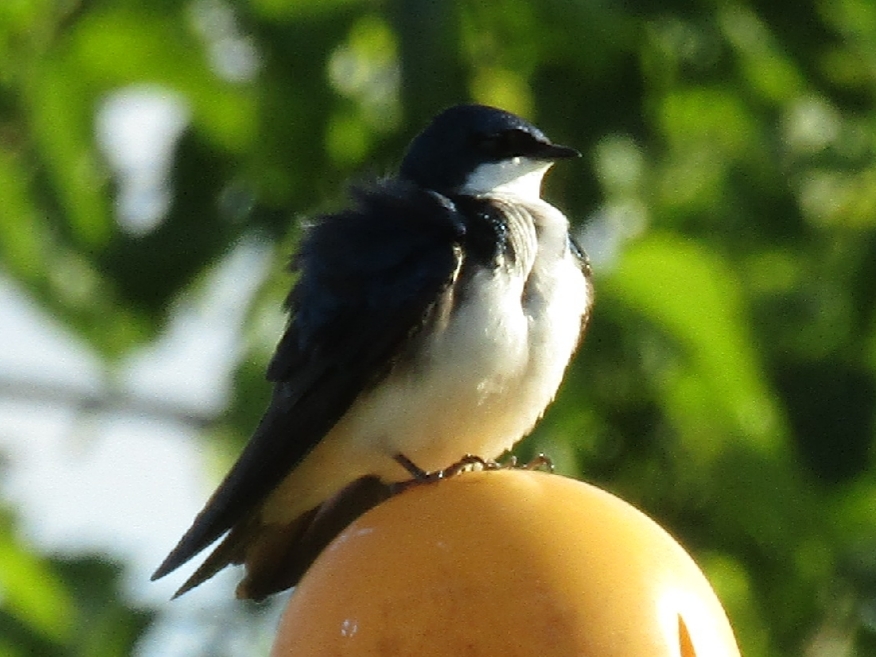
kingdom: Animalia
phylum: Chordata
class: Aves
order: Passeriformes
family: Hirundinidae
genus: Tachycineta
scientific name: Tachycineta bicolor
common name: Tree swallow
